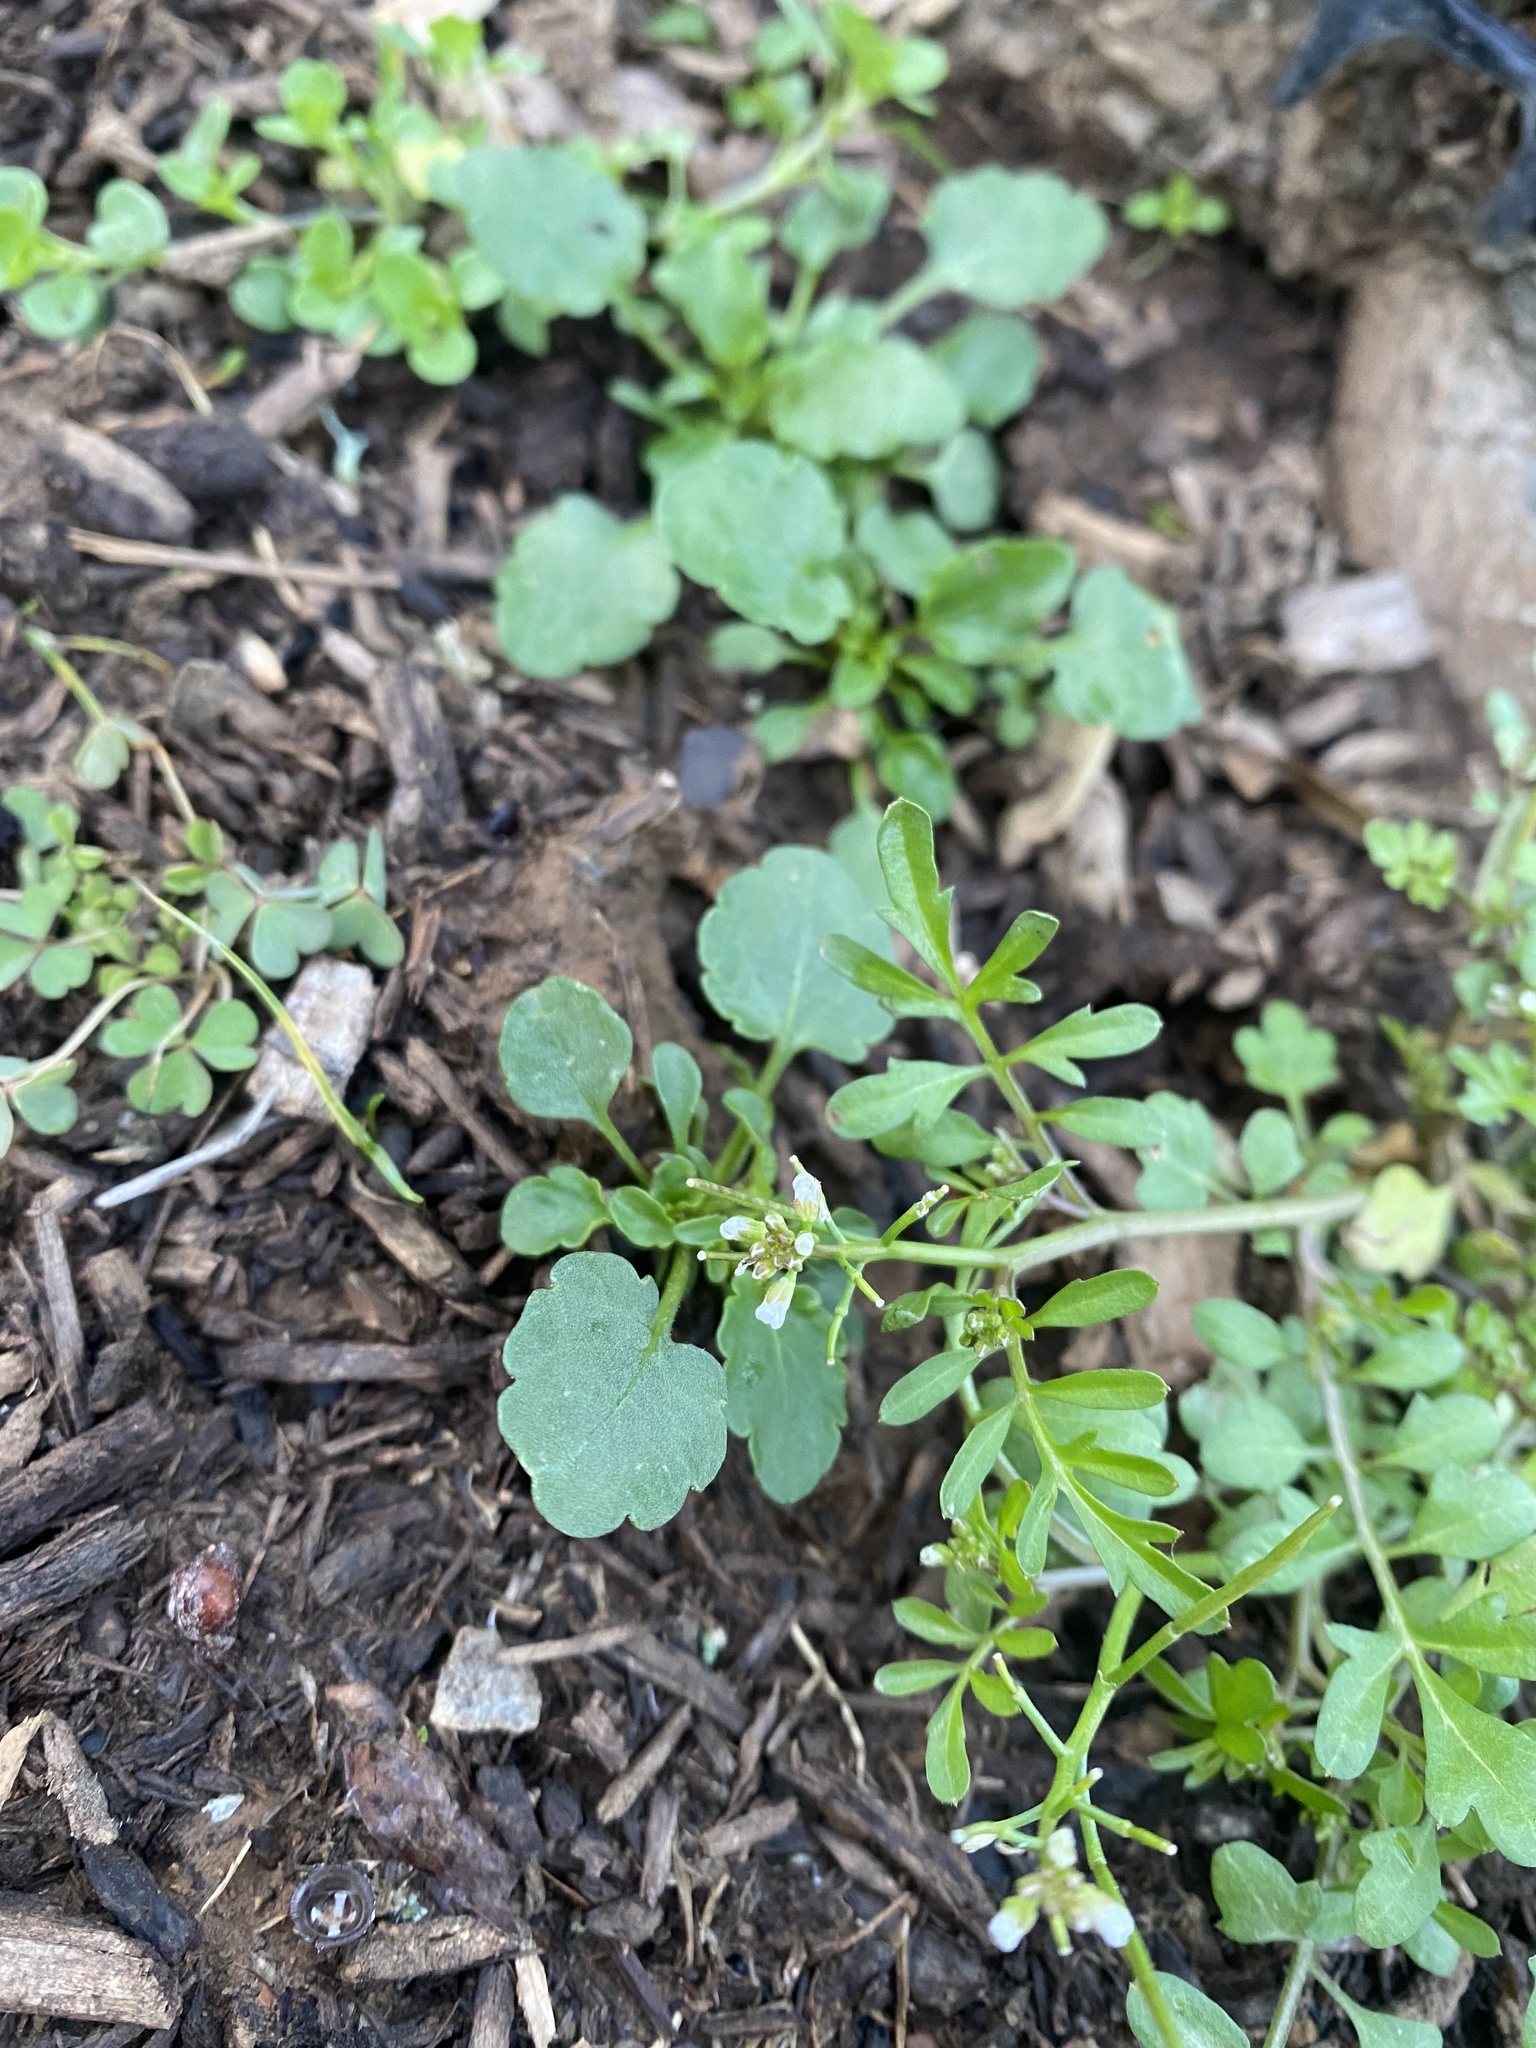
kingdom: Plantae
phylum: Tracheophyta
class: Magnoliopsida
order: Brassicales
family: Brassicaceae
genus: Cardamine
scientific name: Cardamine hirsuta
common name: Hairy bittercress
